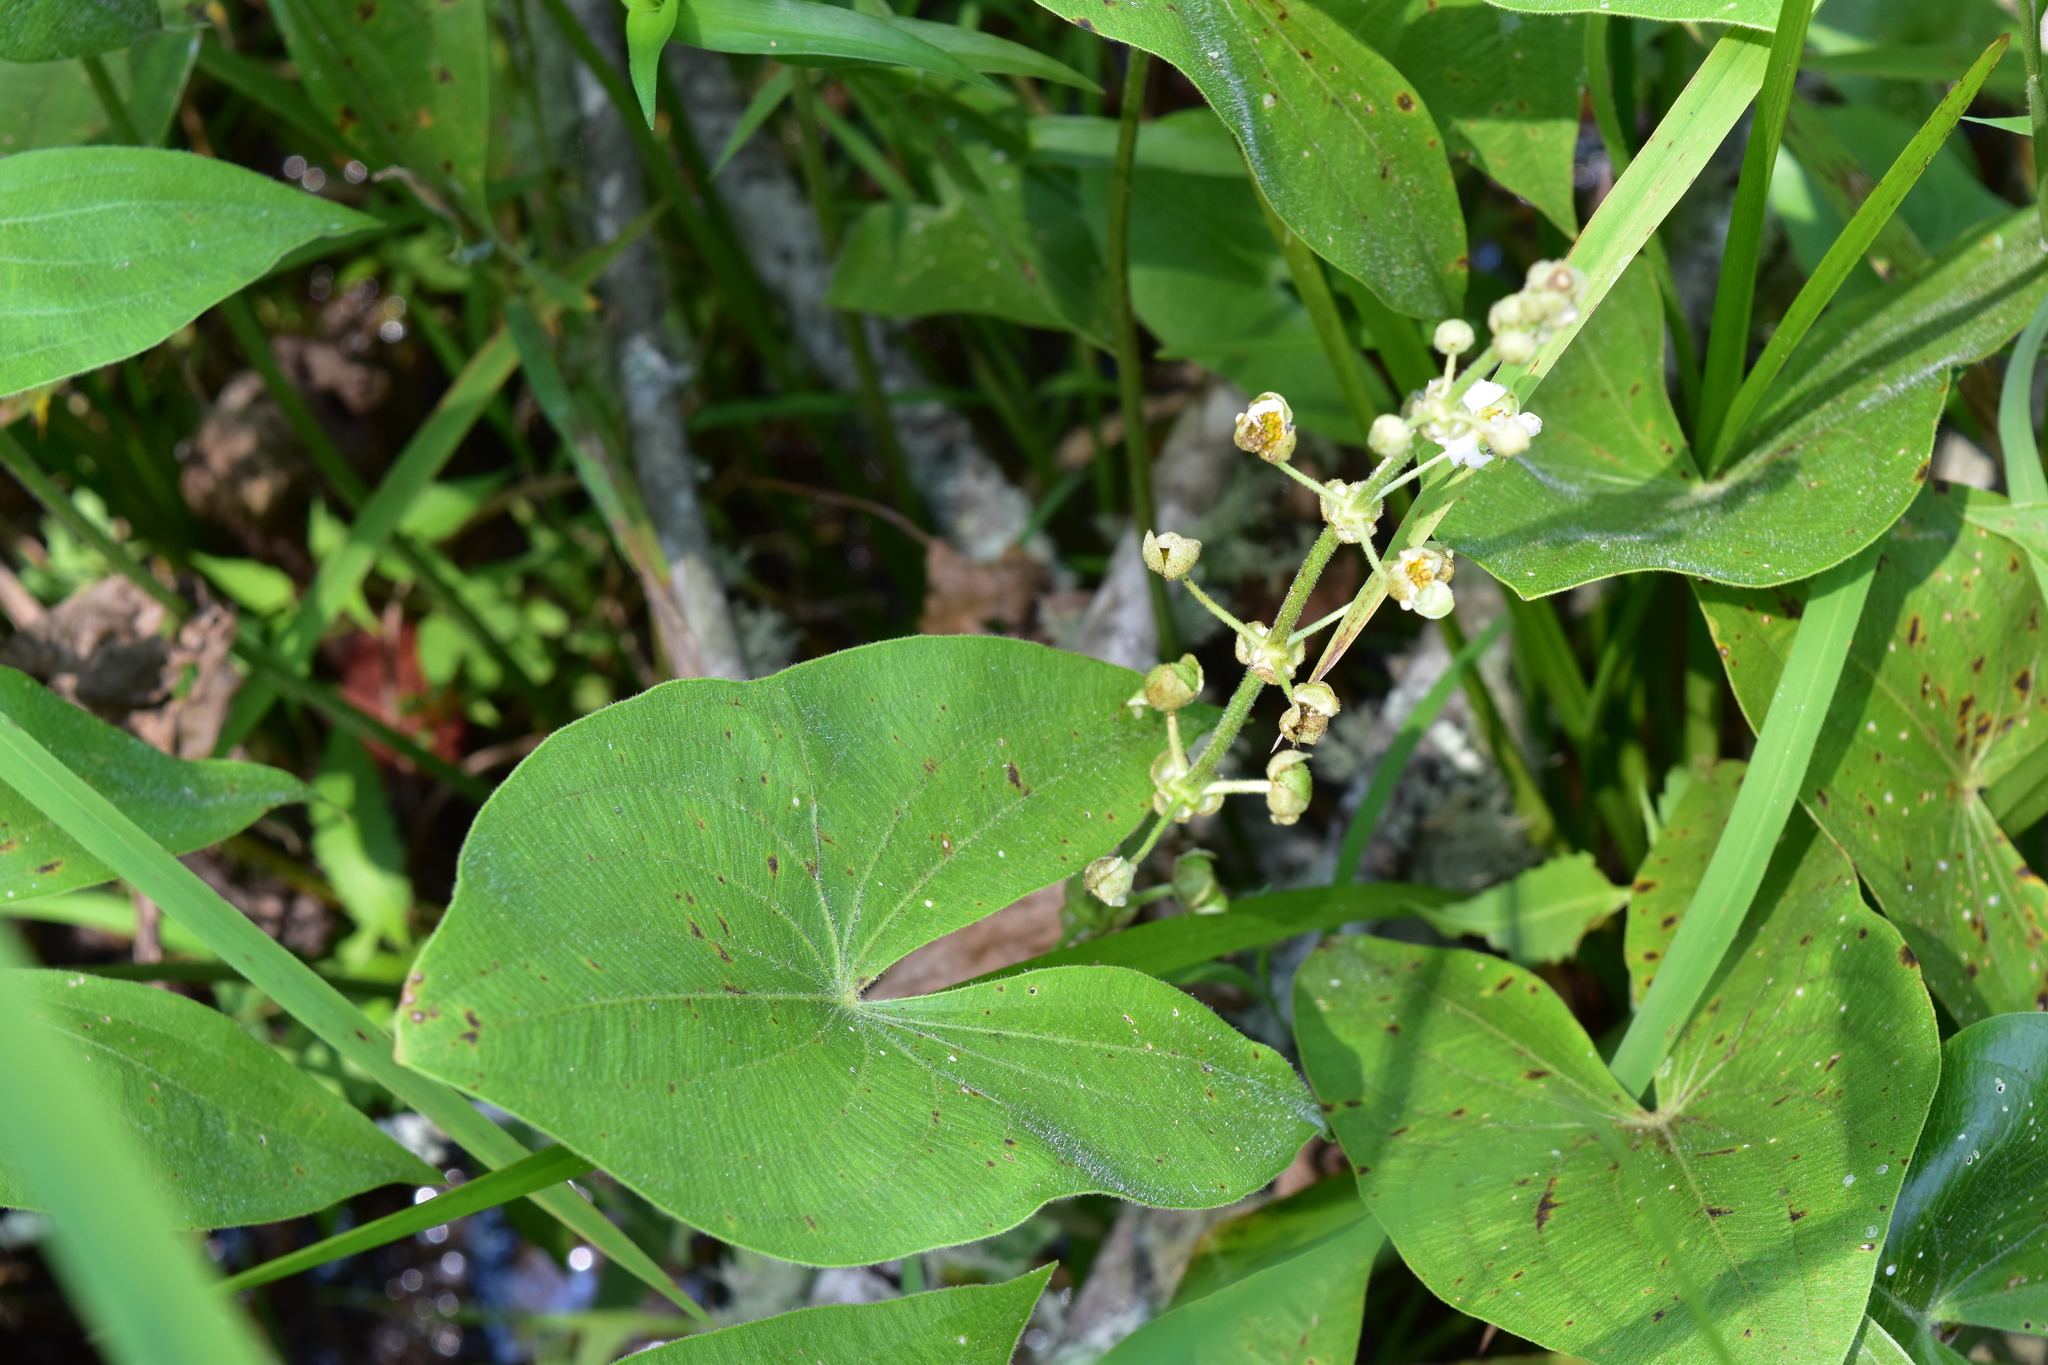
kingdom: Plantae
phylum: Tracheophyta
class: Liliopsida
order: Alismatales
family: Alismataceae
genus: Sagittaria
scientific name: Sagittaria latifolia
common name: Duck-potato
